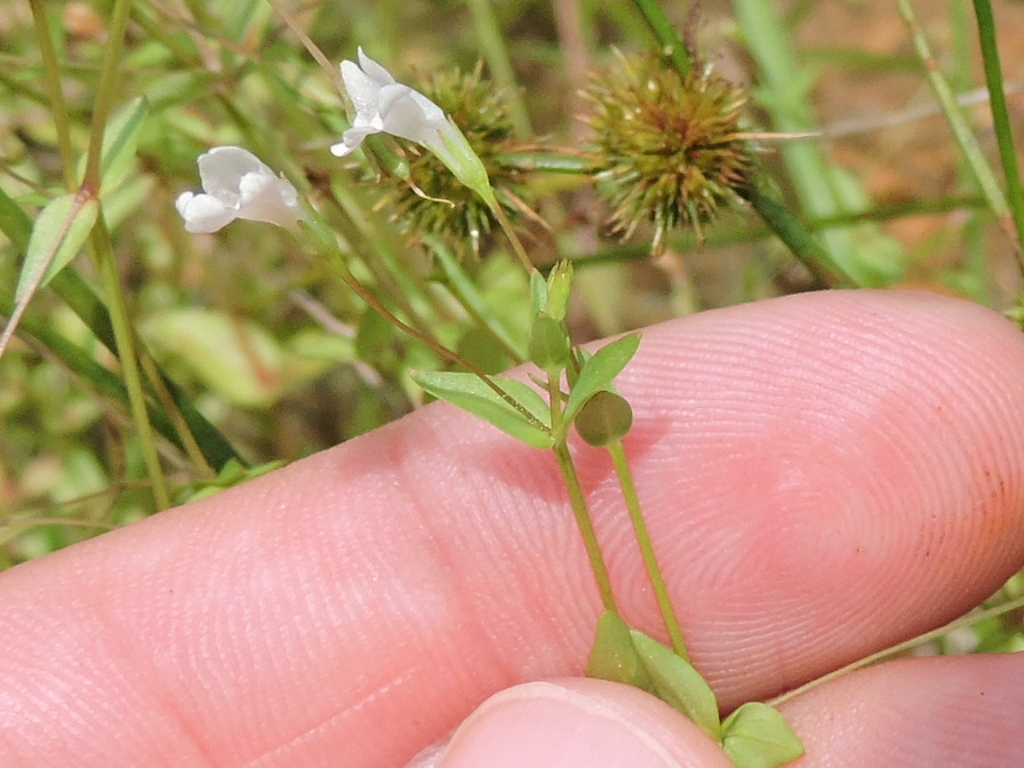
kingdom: Plantae
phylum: Tracheophyta
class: Magnoliopsida
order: Lamiales
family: Linderniaceae
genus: Lindernia
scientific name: Lindernia dubia
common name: Annual false pimpernel
